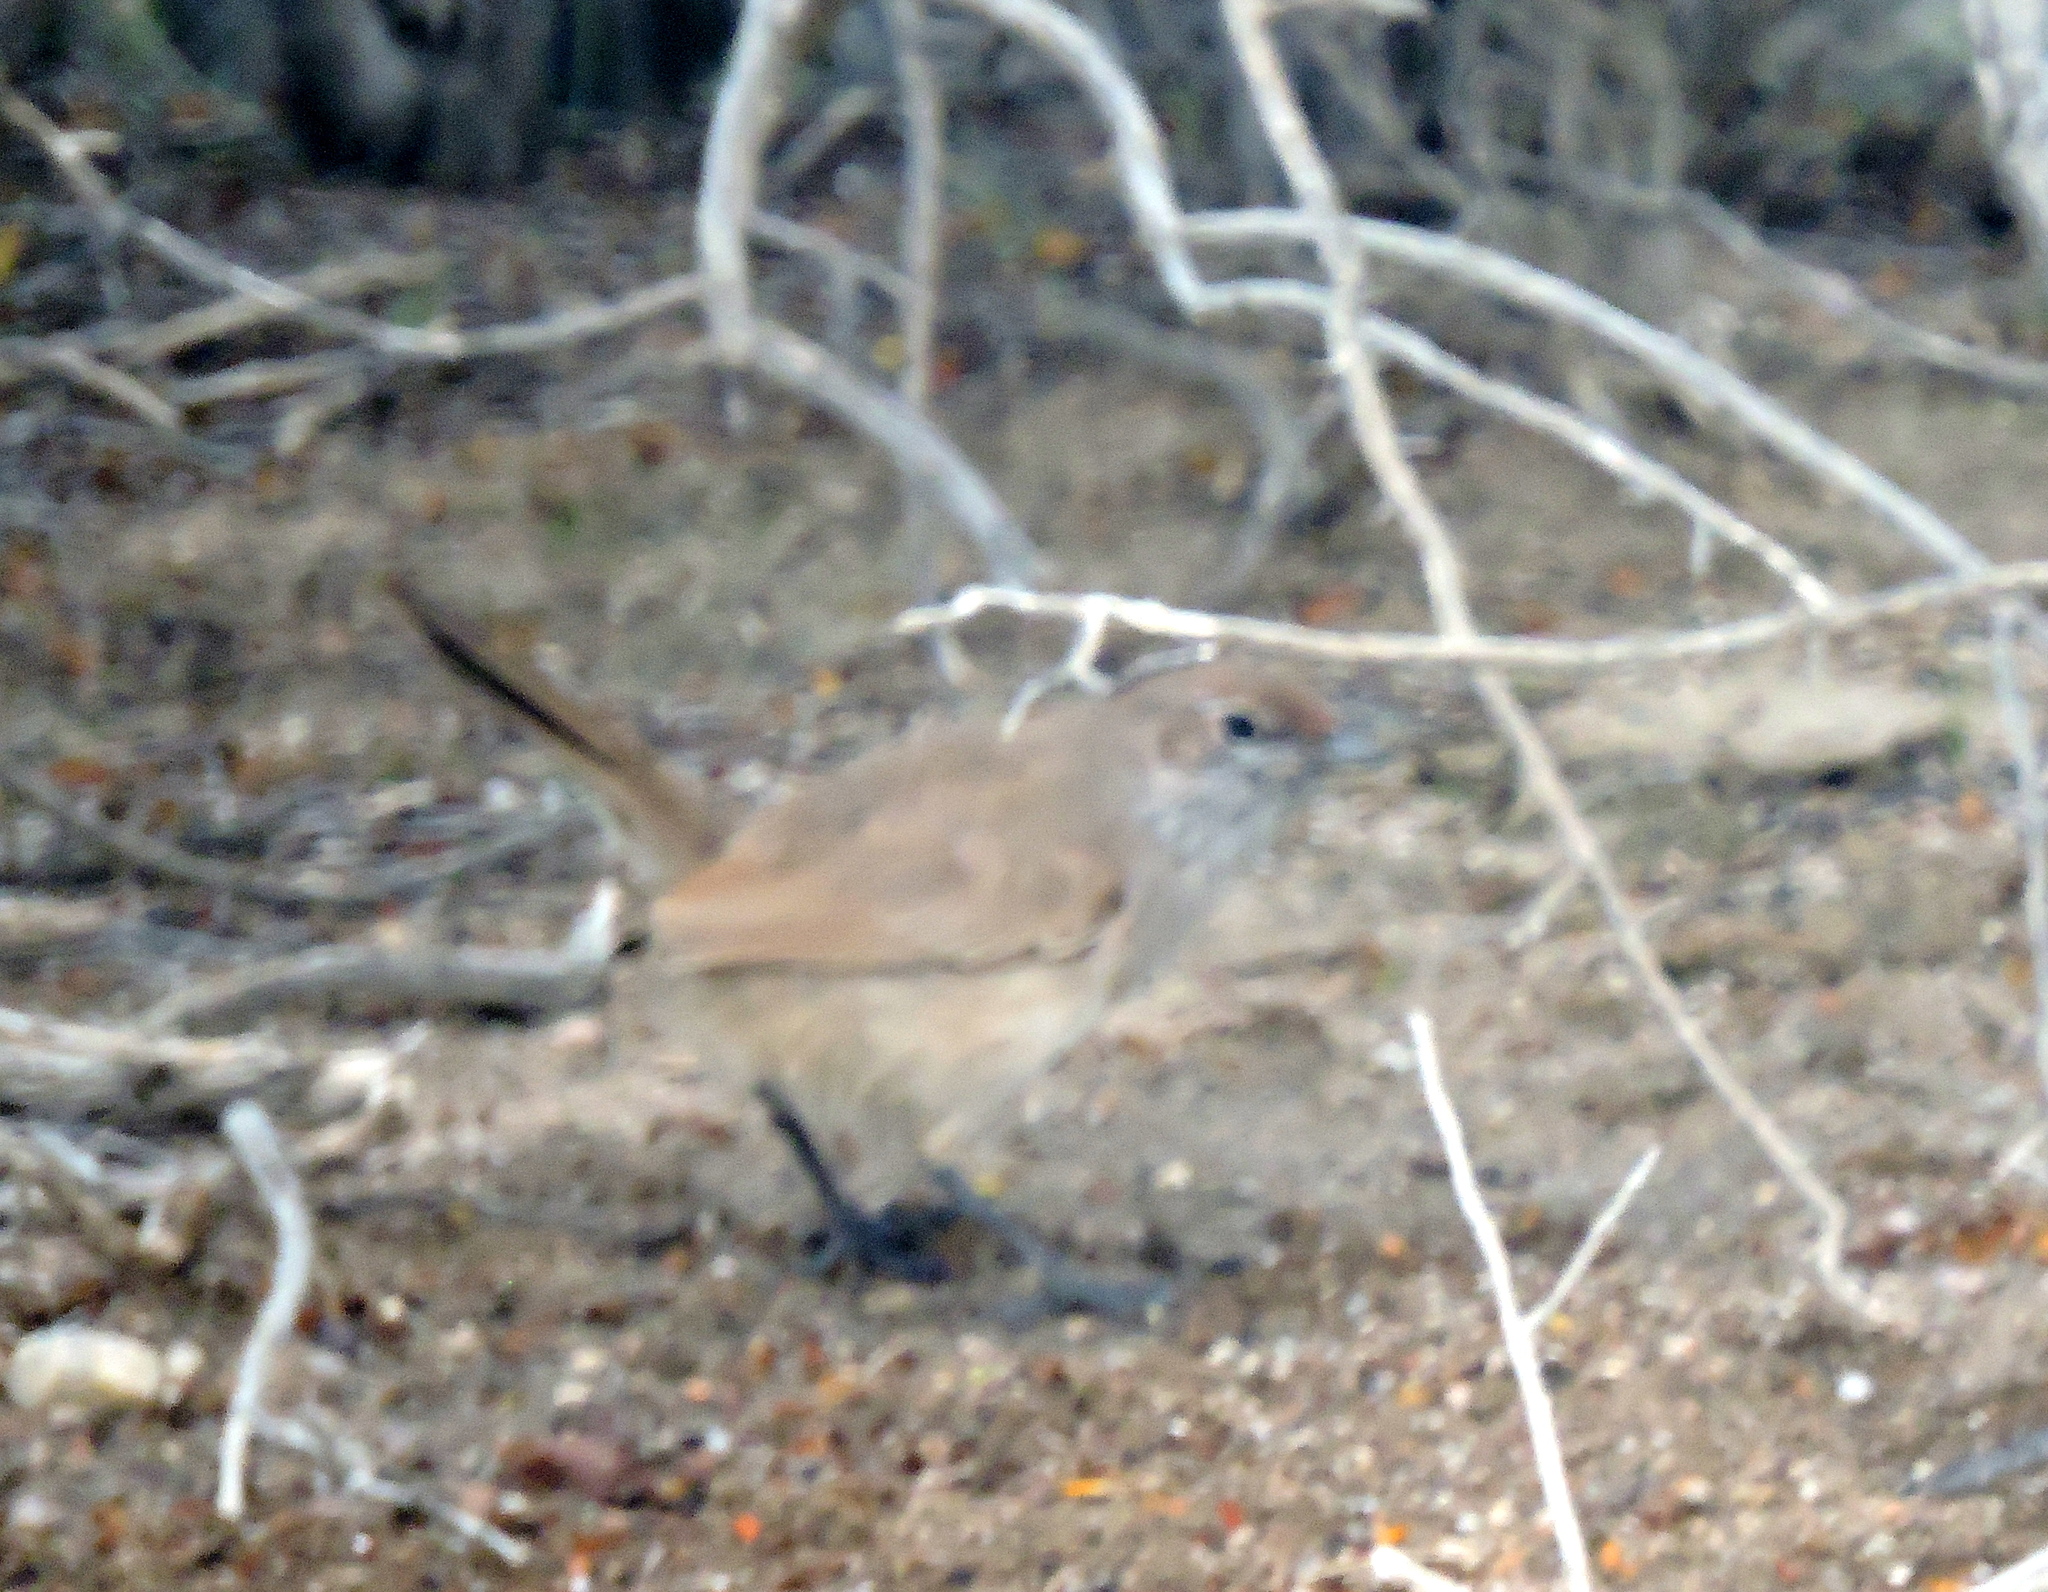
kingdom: Animalia
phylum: Chordata
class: Aves
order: Passeriformes
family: Rhinocryptidae
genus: Teledromas
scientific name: Teledromas fuscus
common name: Sandy gallito
